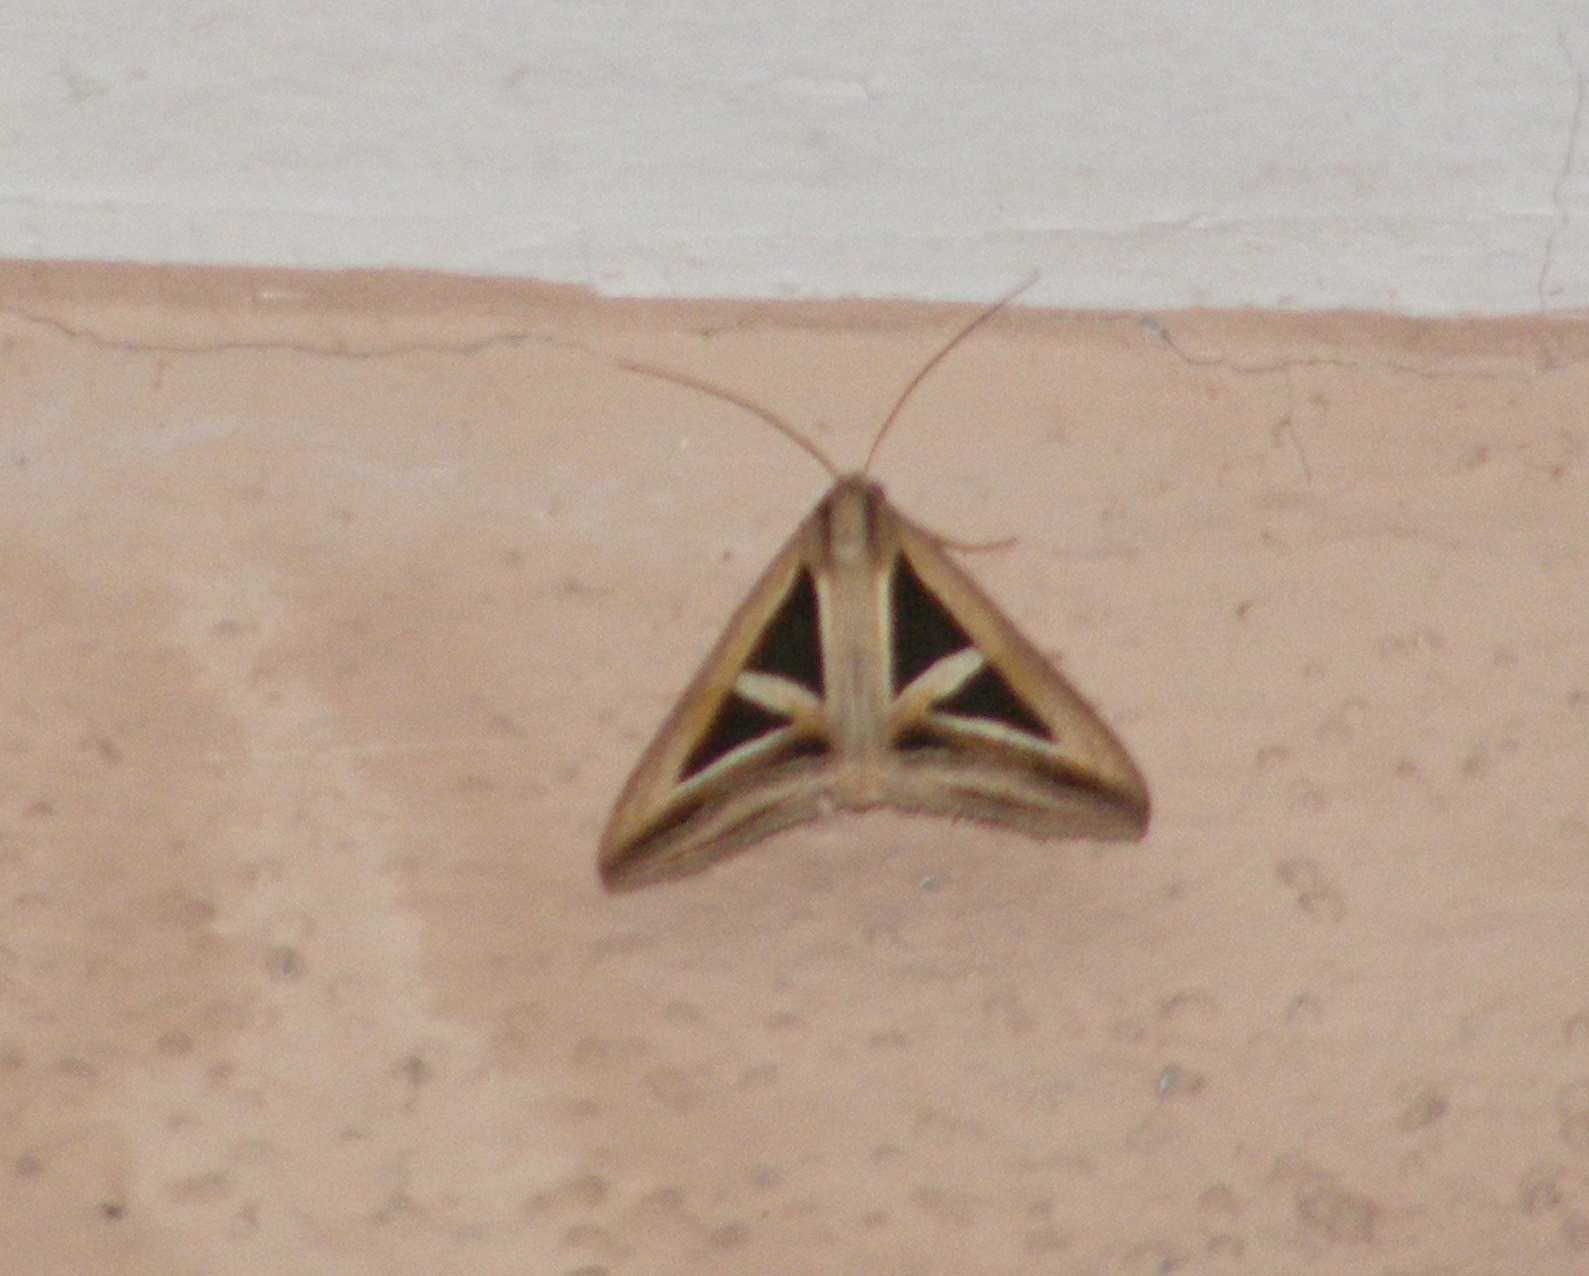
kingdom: Animalia
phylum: Arthropoda
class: Insecta
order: Lepidoptera
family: Erebidae
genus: Trigonodes
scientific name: Trigonodes hyppasia
